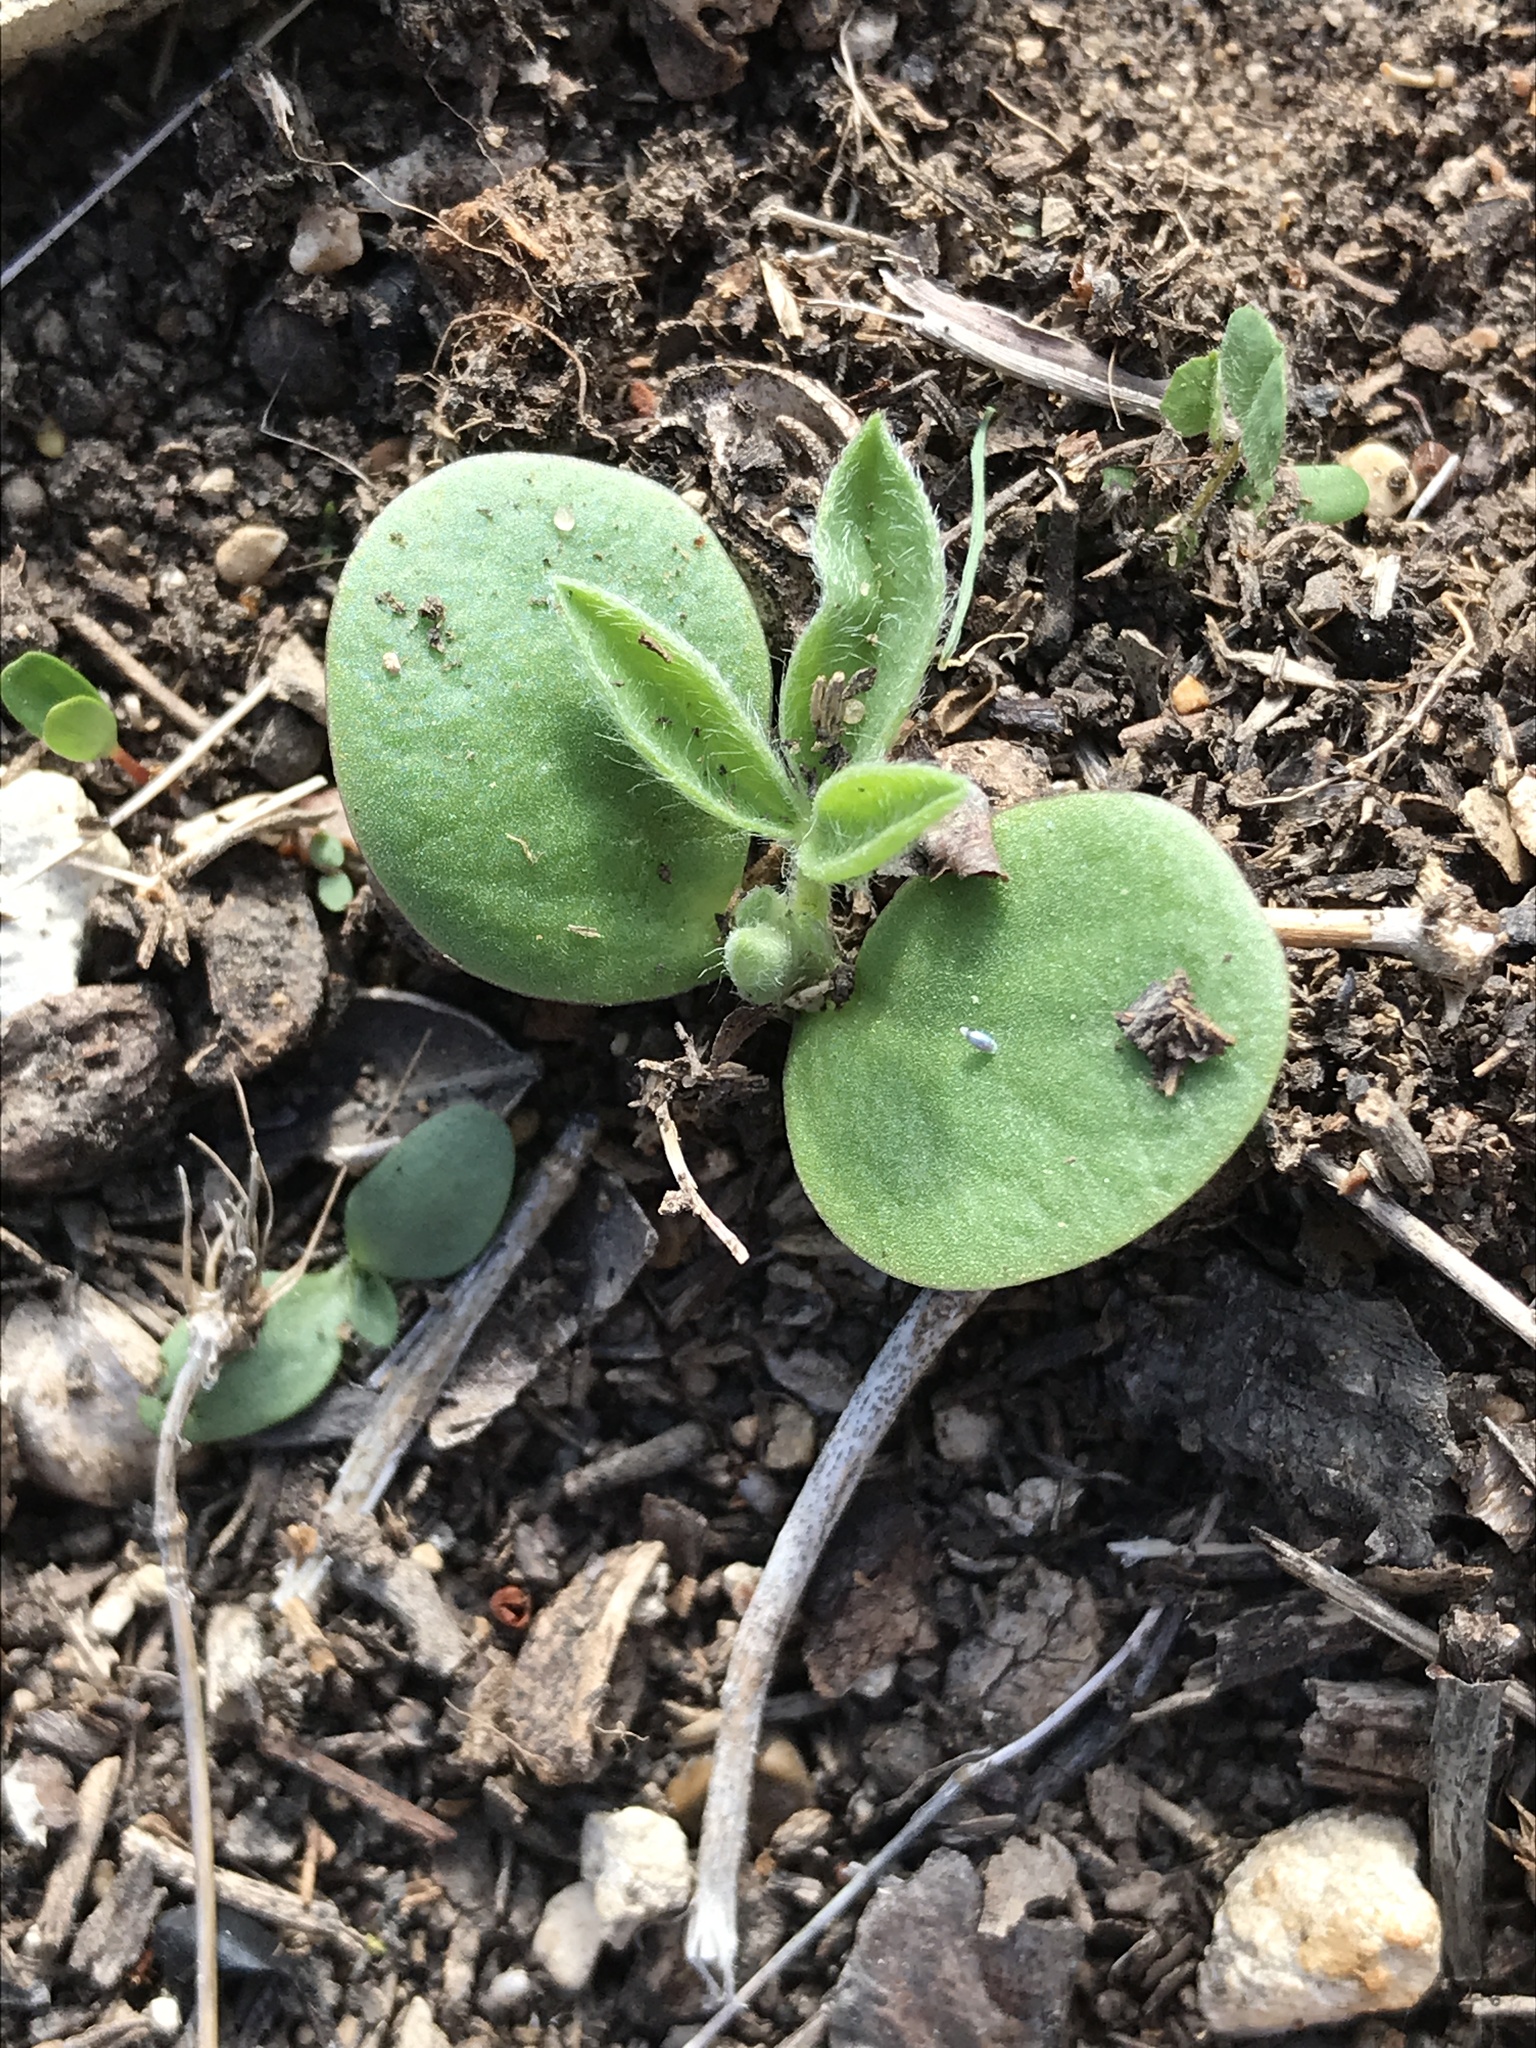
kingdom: Plantae
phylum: Tracheophyta
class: Magnoliopsida
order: Fabales
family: Fabaceae
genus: Lupinus
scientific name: Lupinus texensis
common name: Texas bluebonnet
